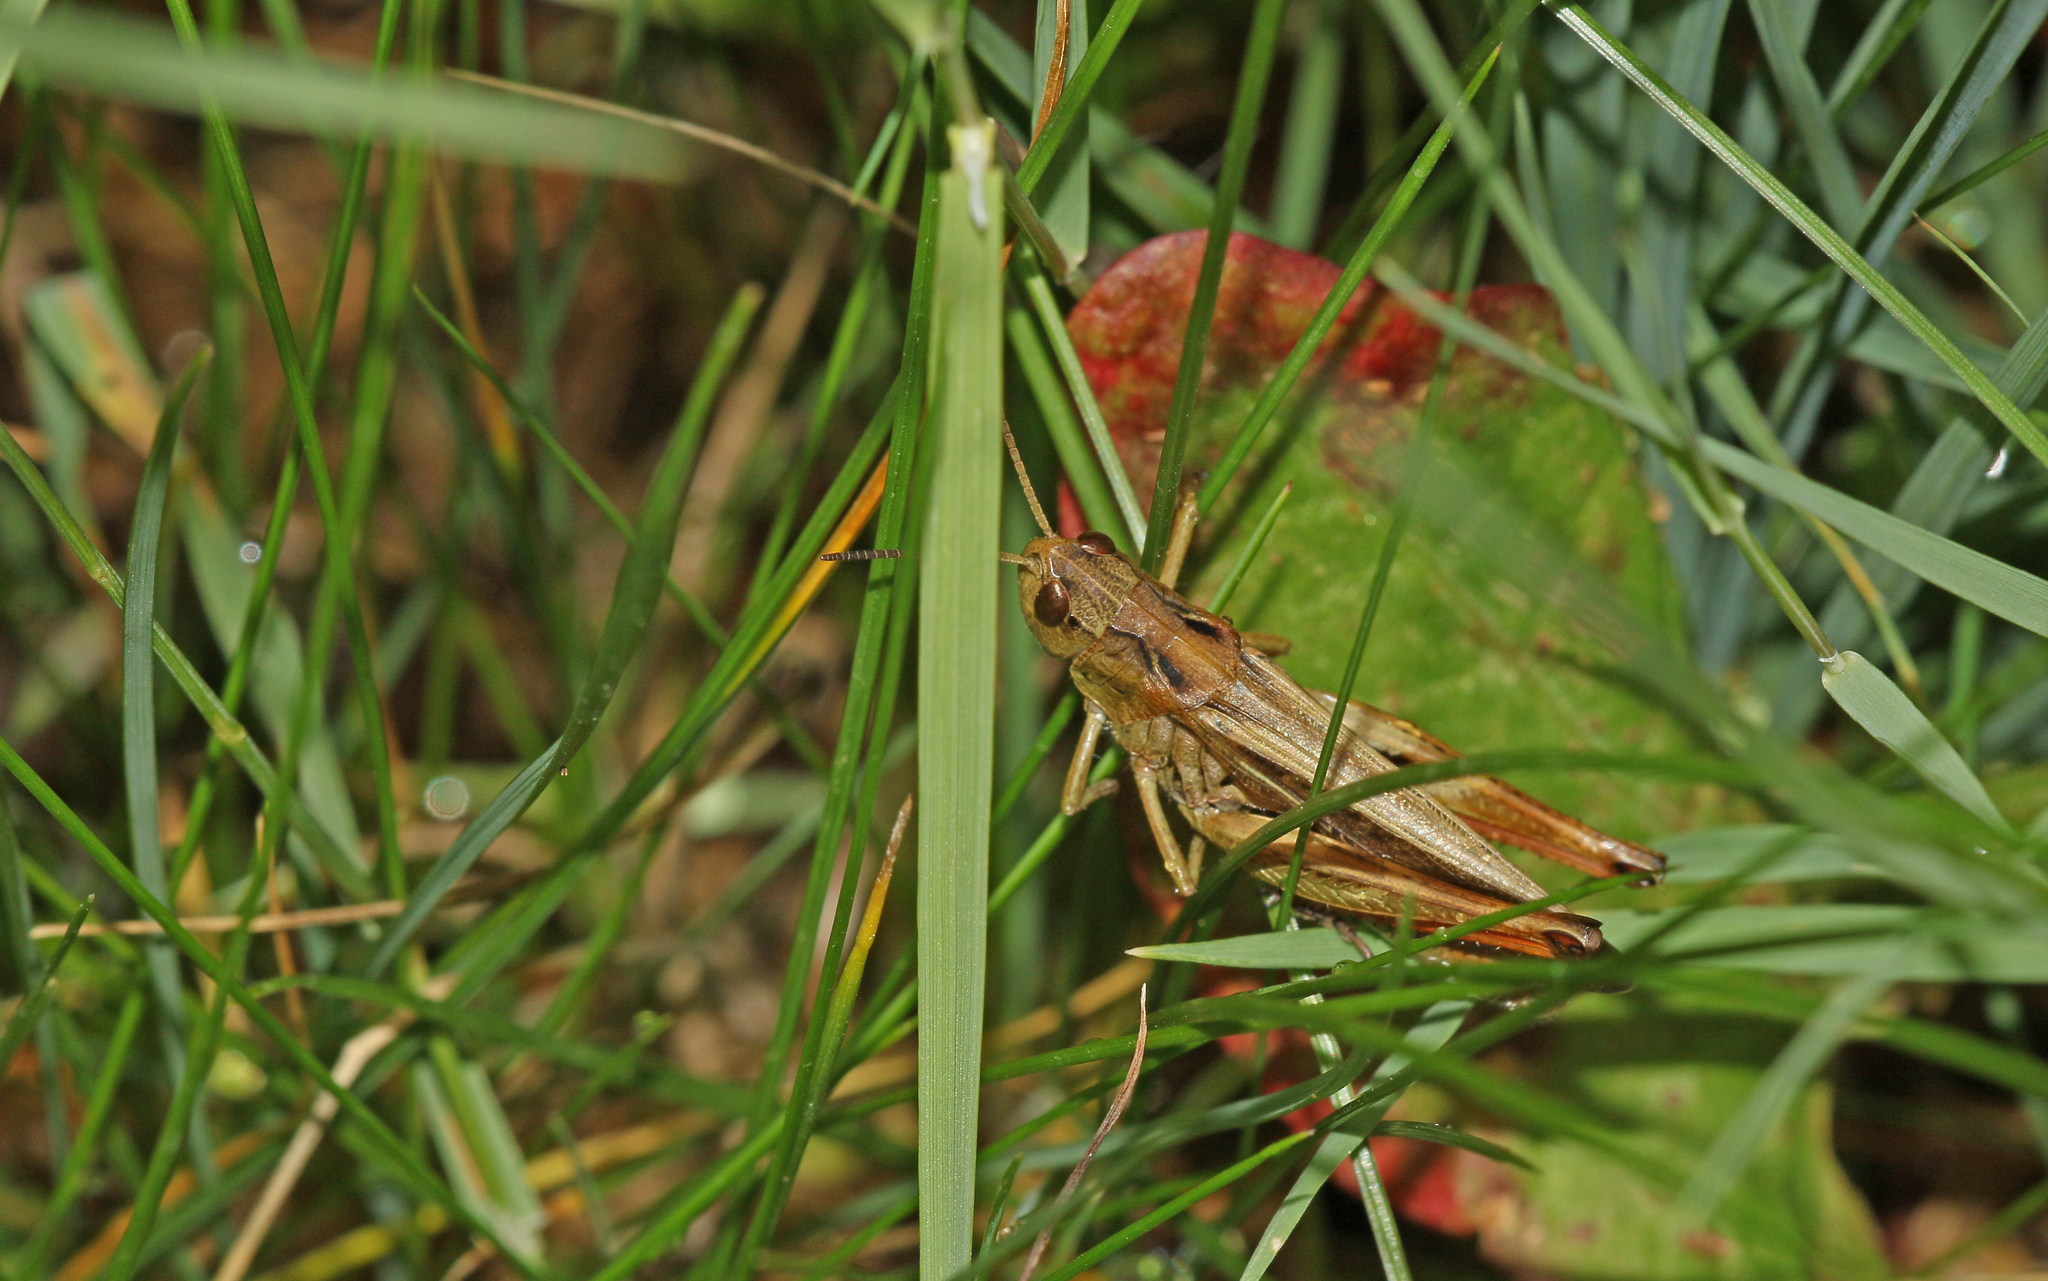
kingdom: Animalia
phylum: Arthropoda
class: Insecta
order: Orthoptera
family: Acrididae
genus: Stauroderus
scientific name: Stauroderus scalaris
